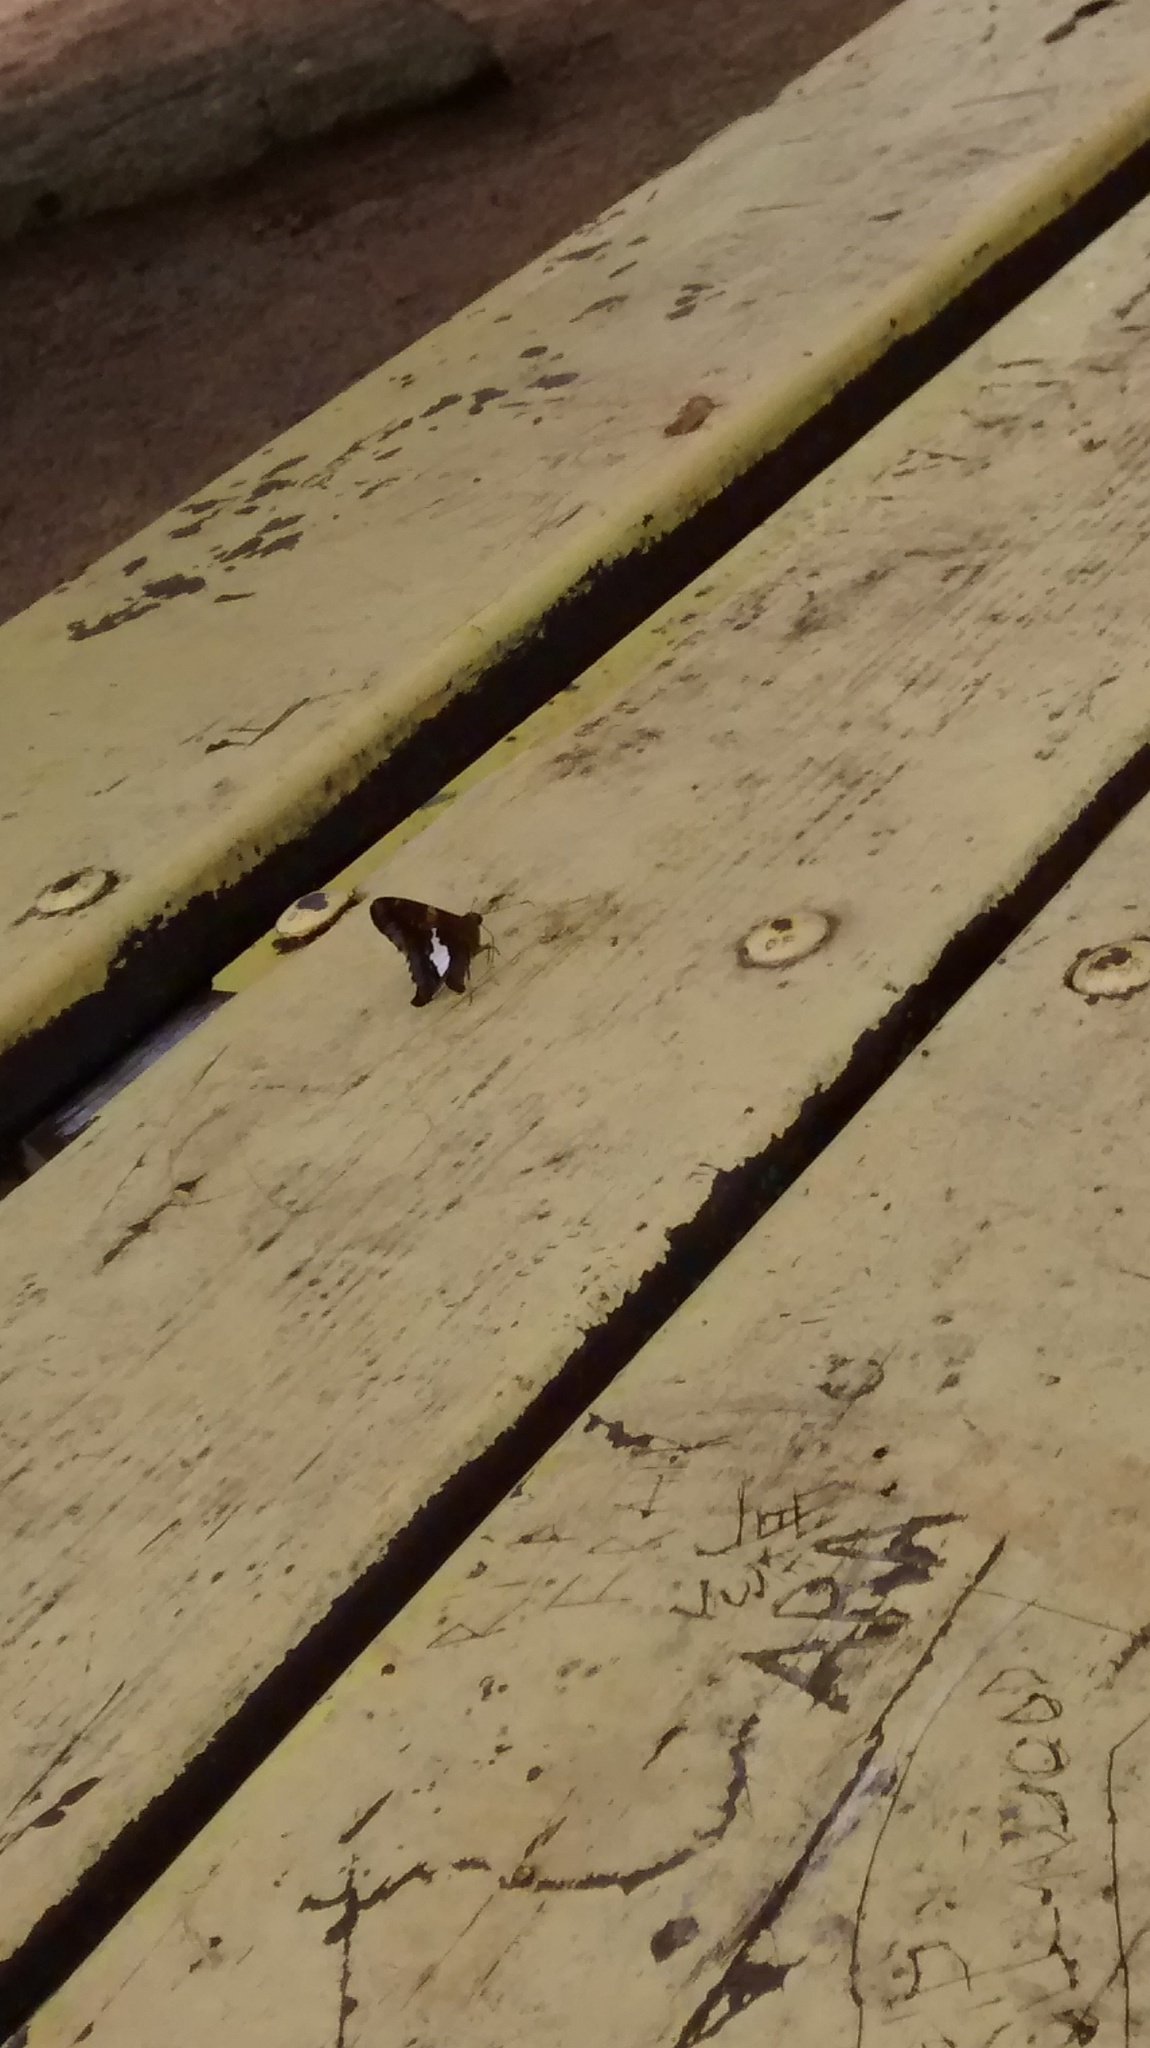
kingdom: Animalia
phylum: Arthropoda
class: Insecta
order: Lepidoptera
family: Hesperiidae
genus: Epargyreus
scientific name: Epargyreus clarus
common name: Silver-spotted skipper
